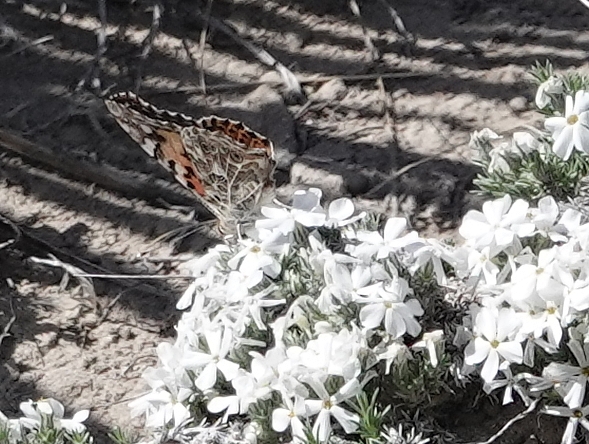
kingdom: Animalia
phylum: Arthropoda
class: Insecta
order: Lepidoptera
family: Nymphalidae
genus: Vanessa
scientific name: Vanessa cardui
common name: Painted lady
